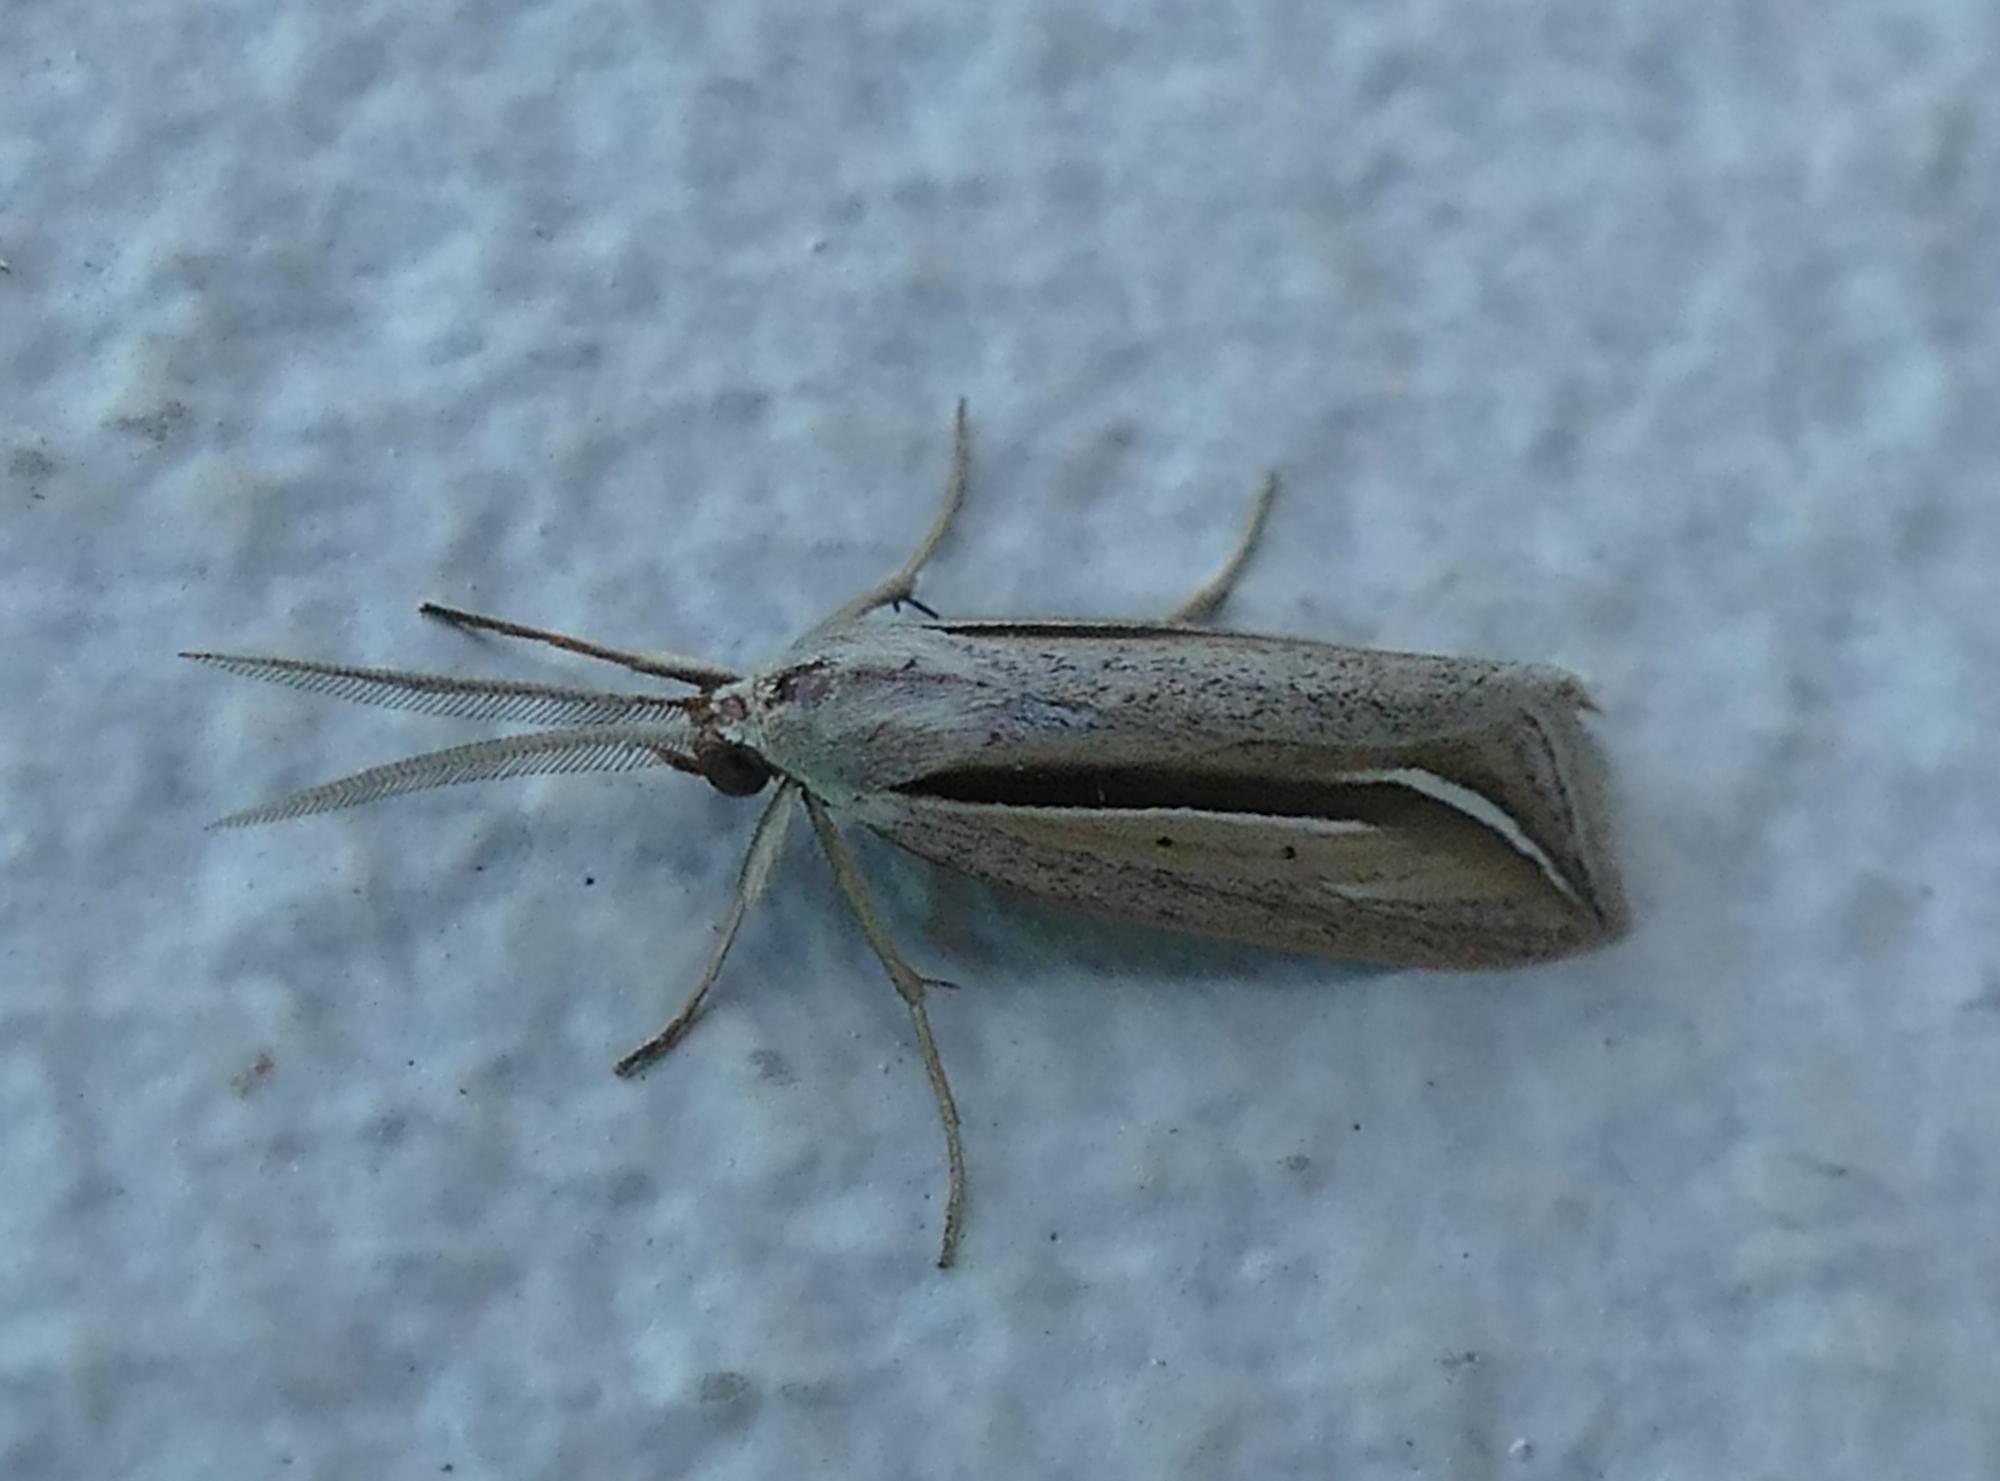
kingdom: Animalia
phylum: Arthropoda
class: Insecta
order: Lepidoptera
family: Erebidae
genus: Doryodes
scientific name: Doryodes latistriga
